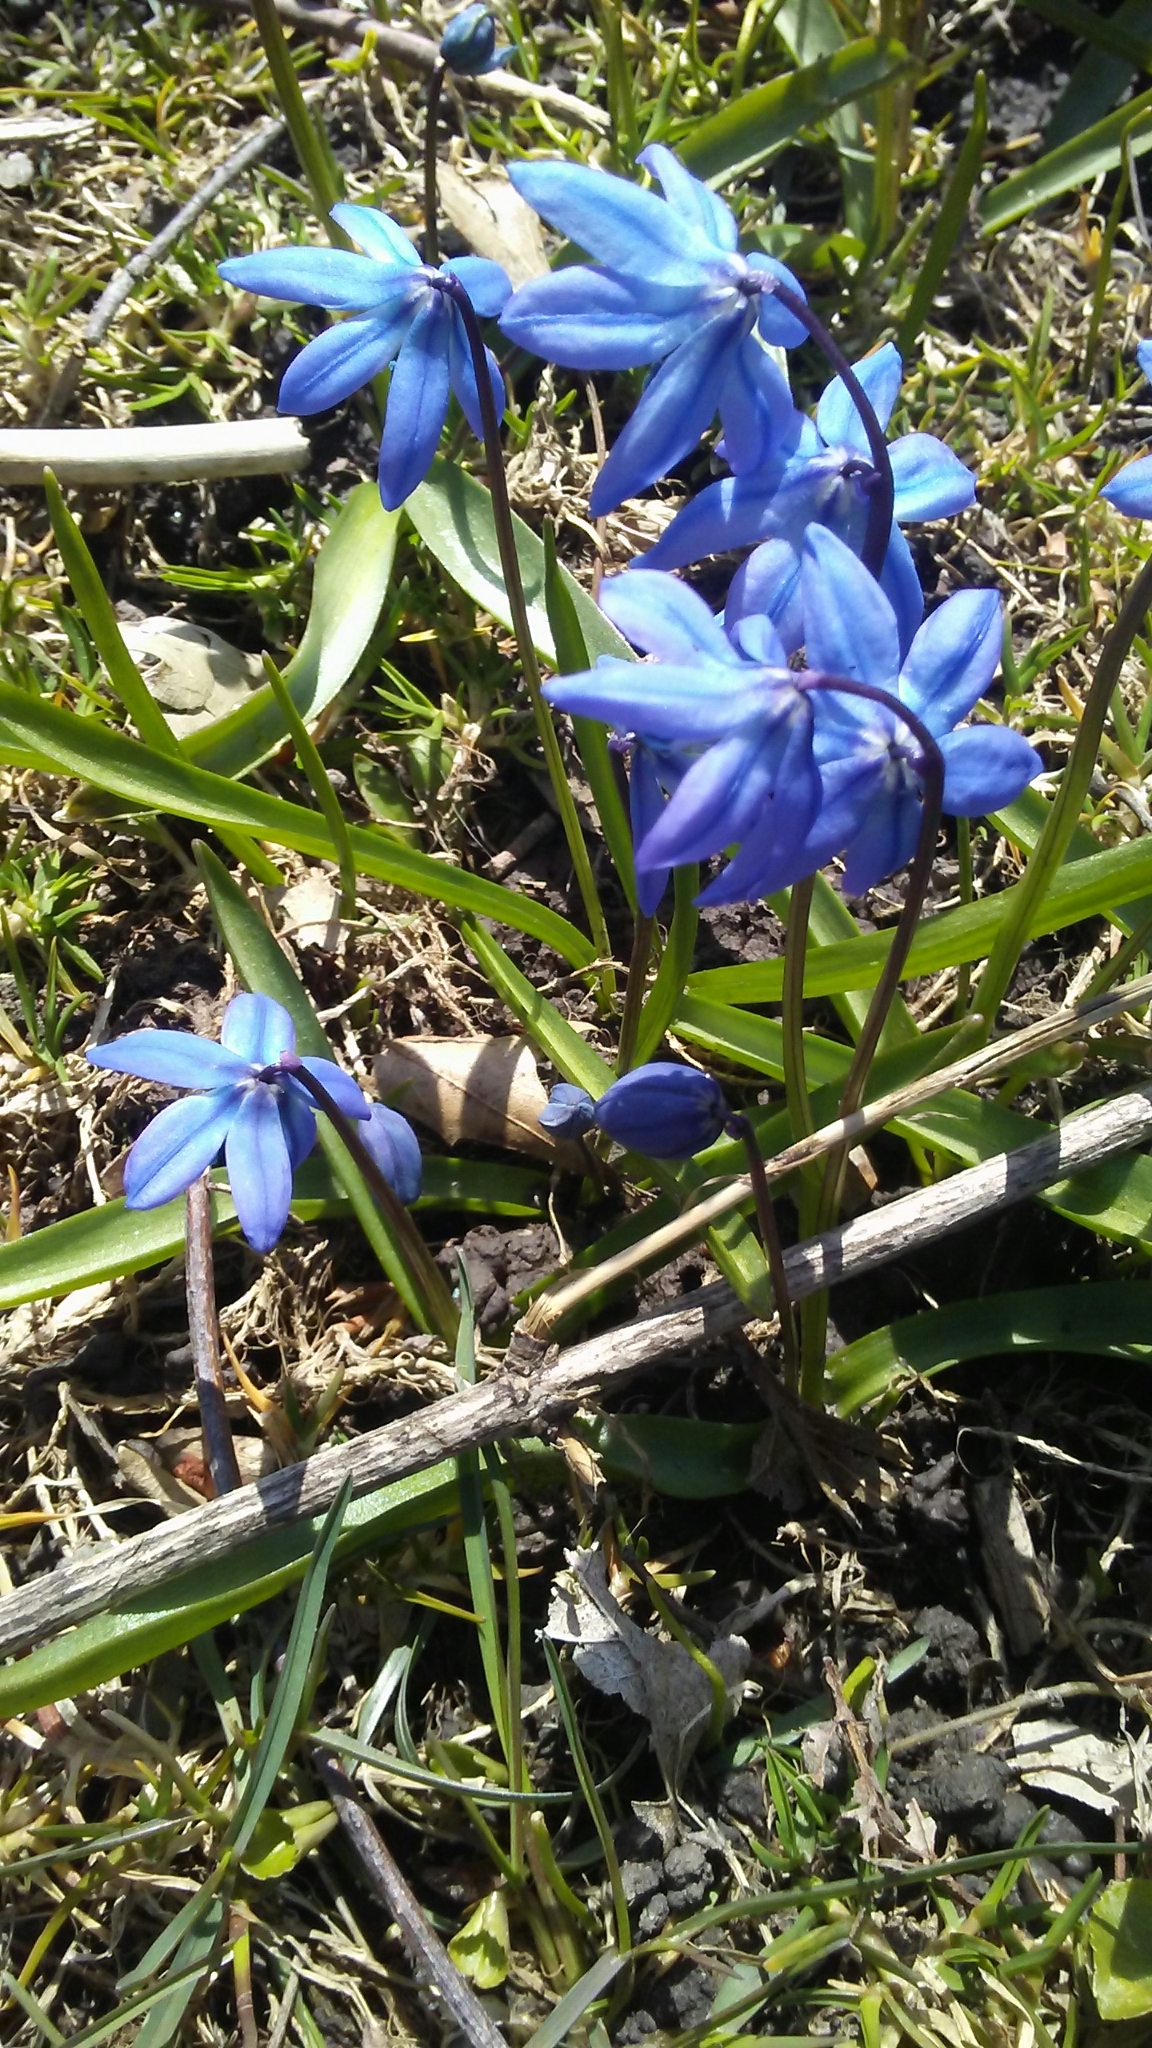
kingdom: Plantae
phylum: Tracheophyta
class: Liliopsida
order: Asparagales
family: Asparagaceae
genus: Scilla
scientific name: Scilla siberica
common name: Siberian squill
